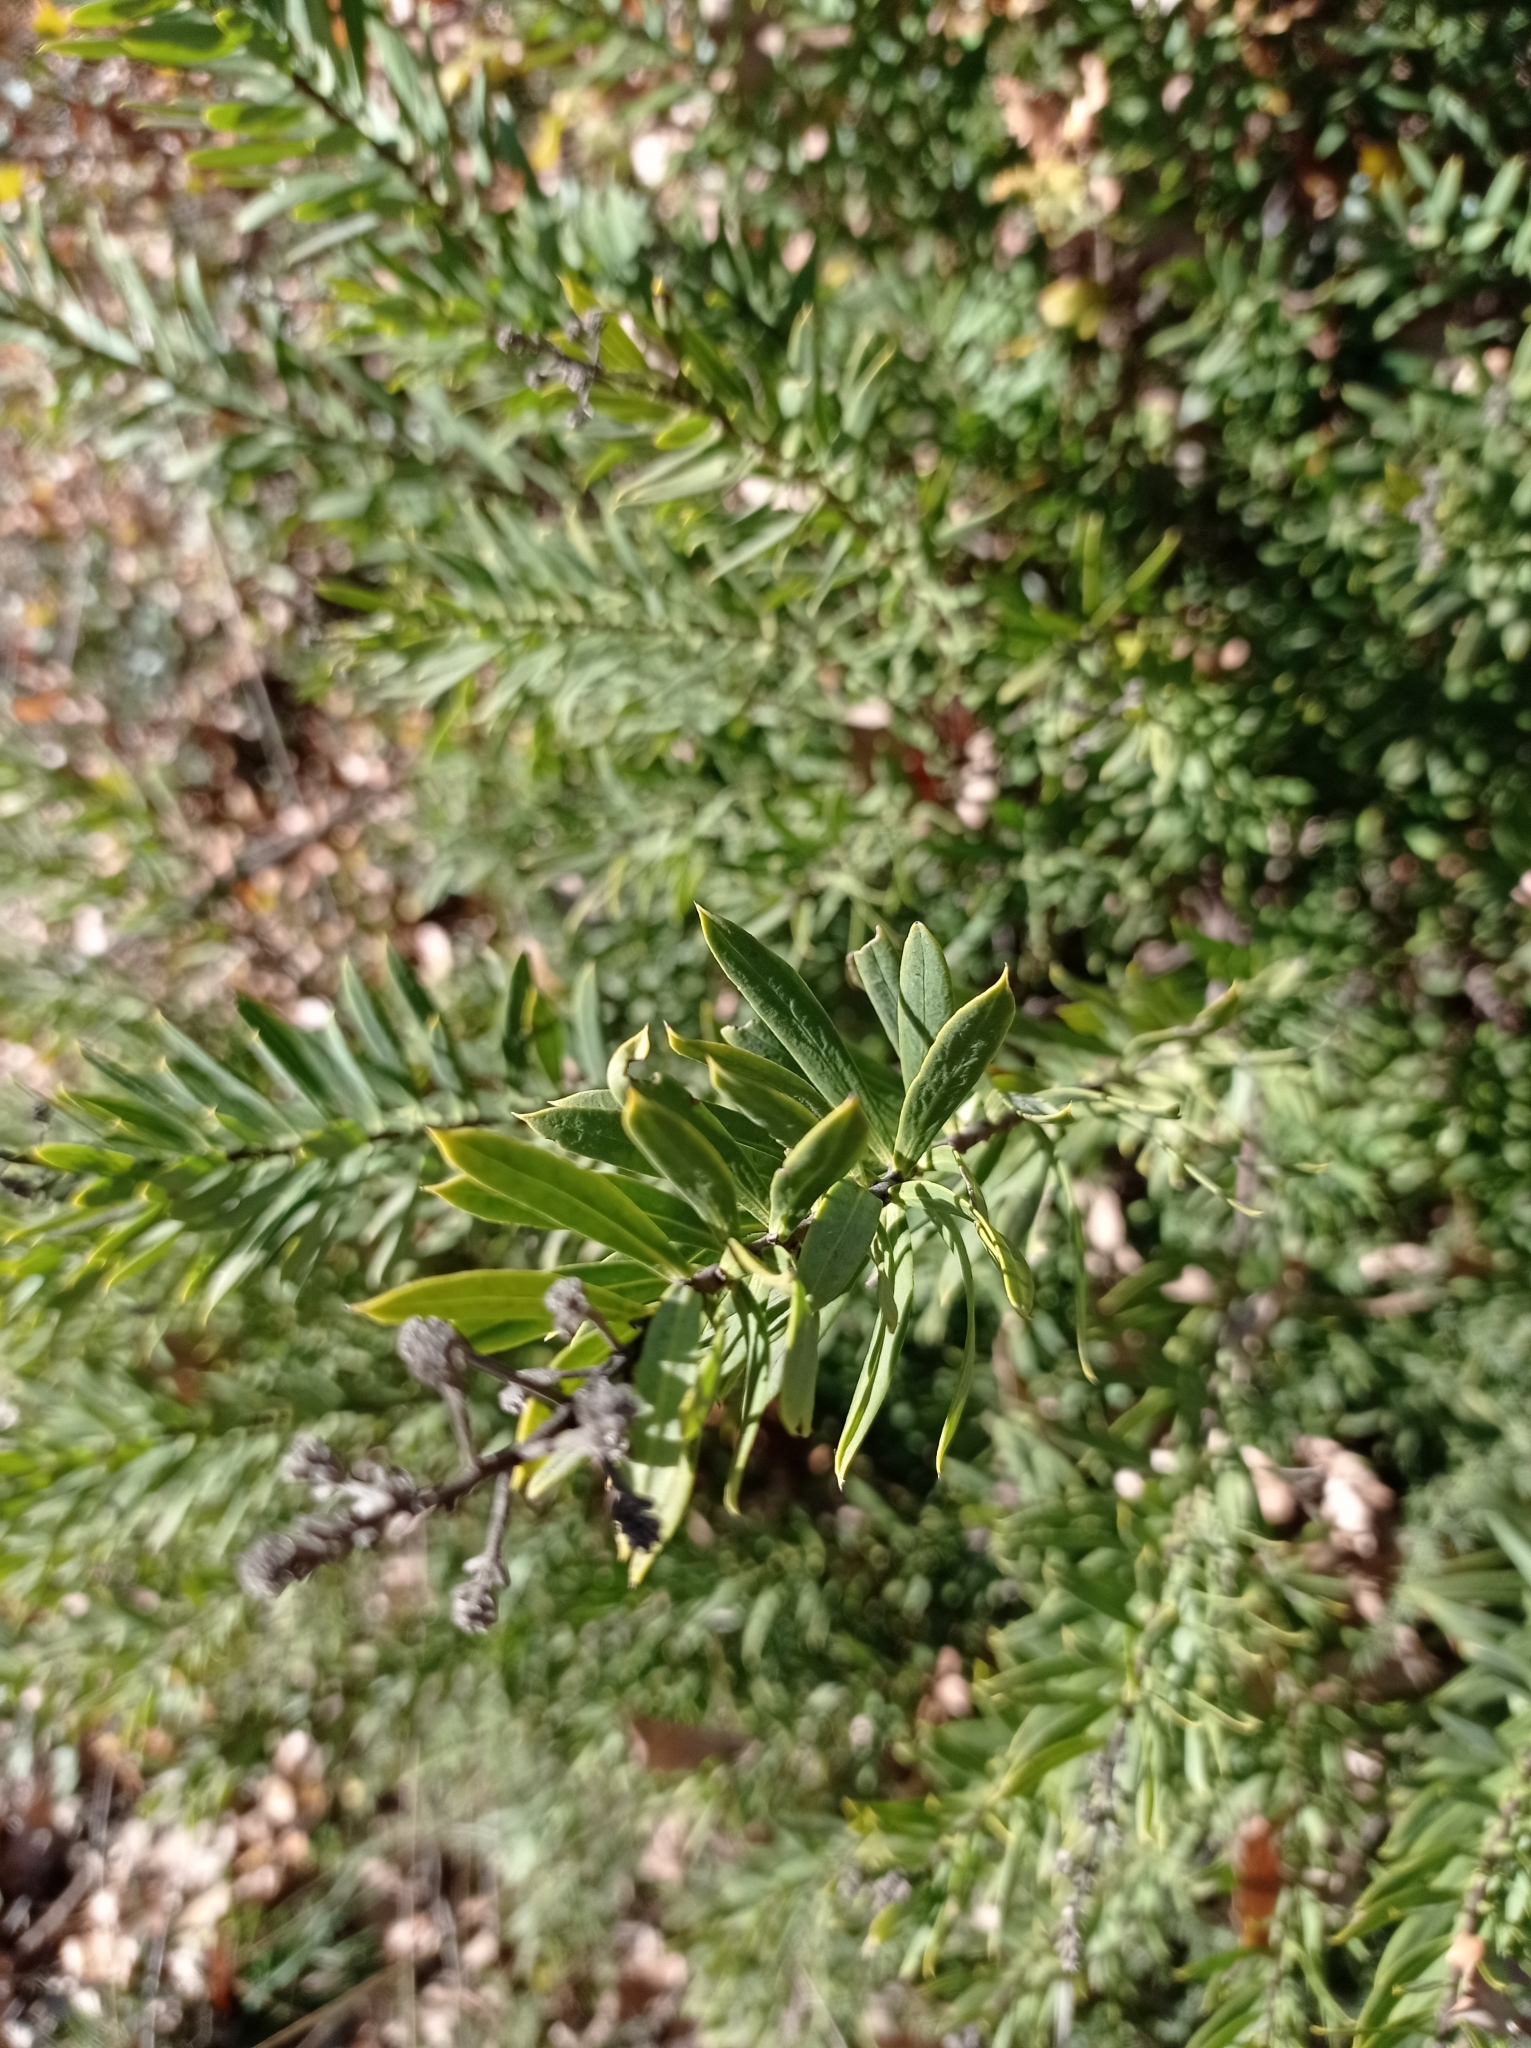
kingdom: Plantae
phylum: Tracheophyta
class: Magnoliopsida
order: Malvales
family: Thymelaeaceae
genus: Daphne
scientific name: Daphne gnidium
